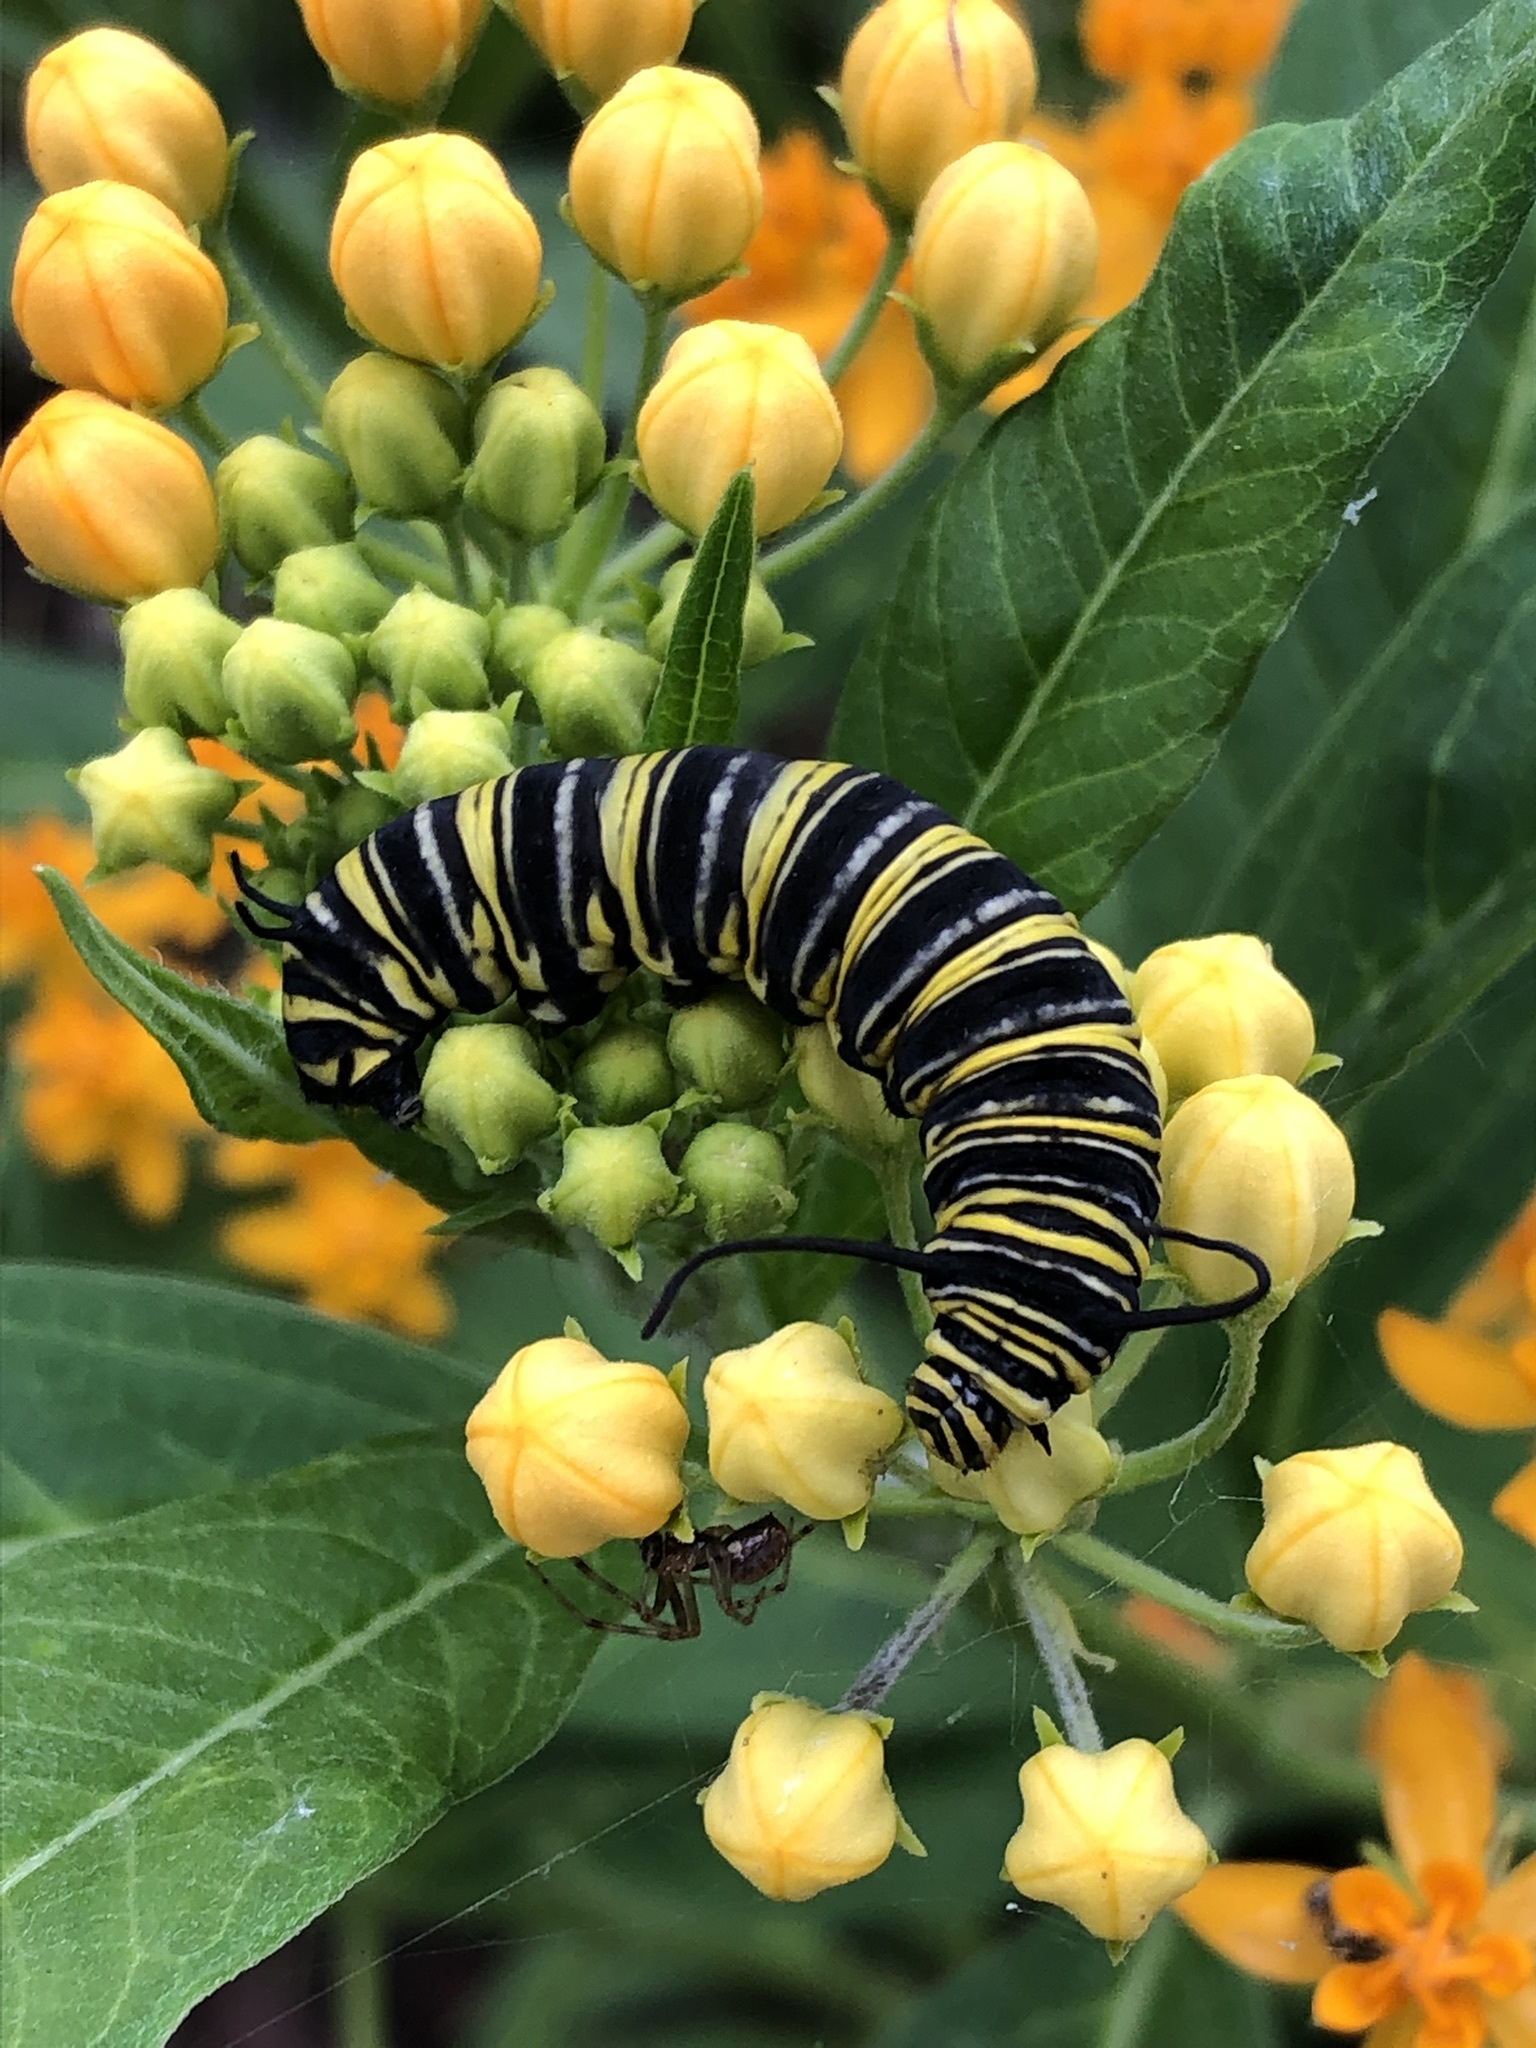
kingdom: Animalia
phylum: Arthropoda
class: Insecta
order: Lepidoptera
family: Nymphalidae
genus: Danaus
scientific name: Danaus plexippus
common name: Monarch
